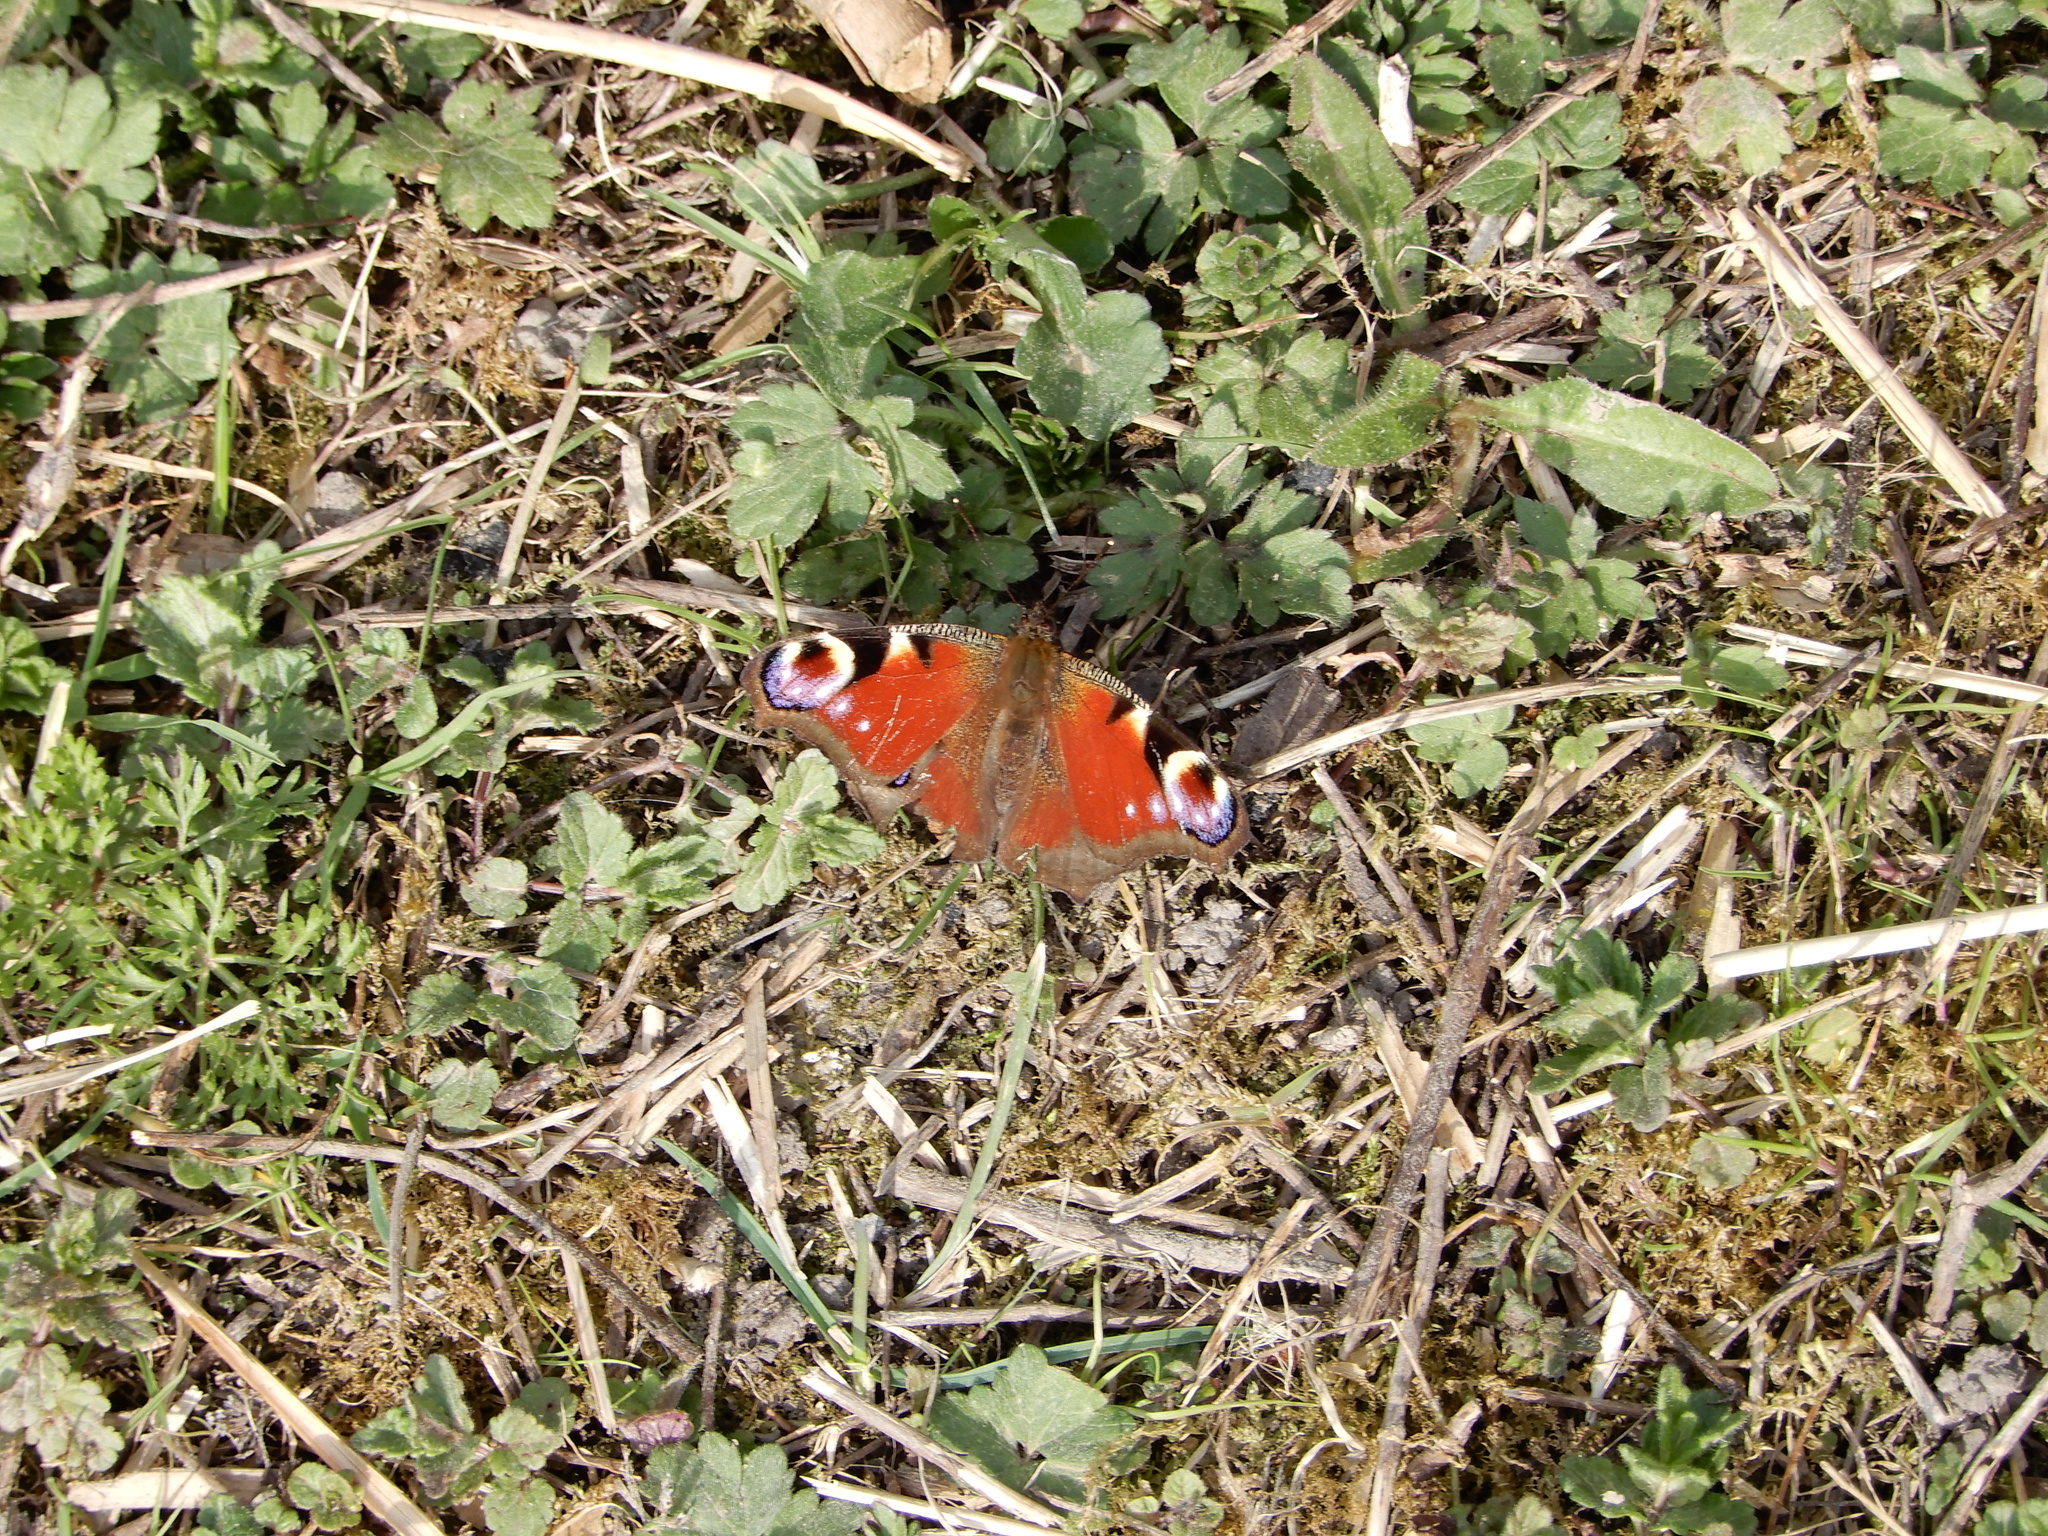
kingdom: Animalia
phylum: Arthropoda
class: Insecta
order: Lepidoptera
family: Nymphalidae
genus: Aglais
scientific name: Aglais io
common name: Peacock
